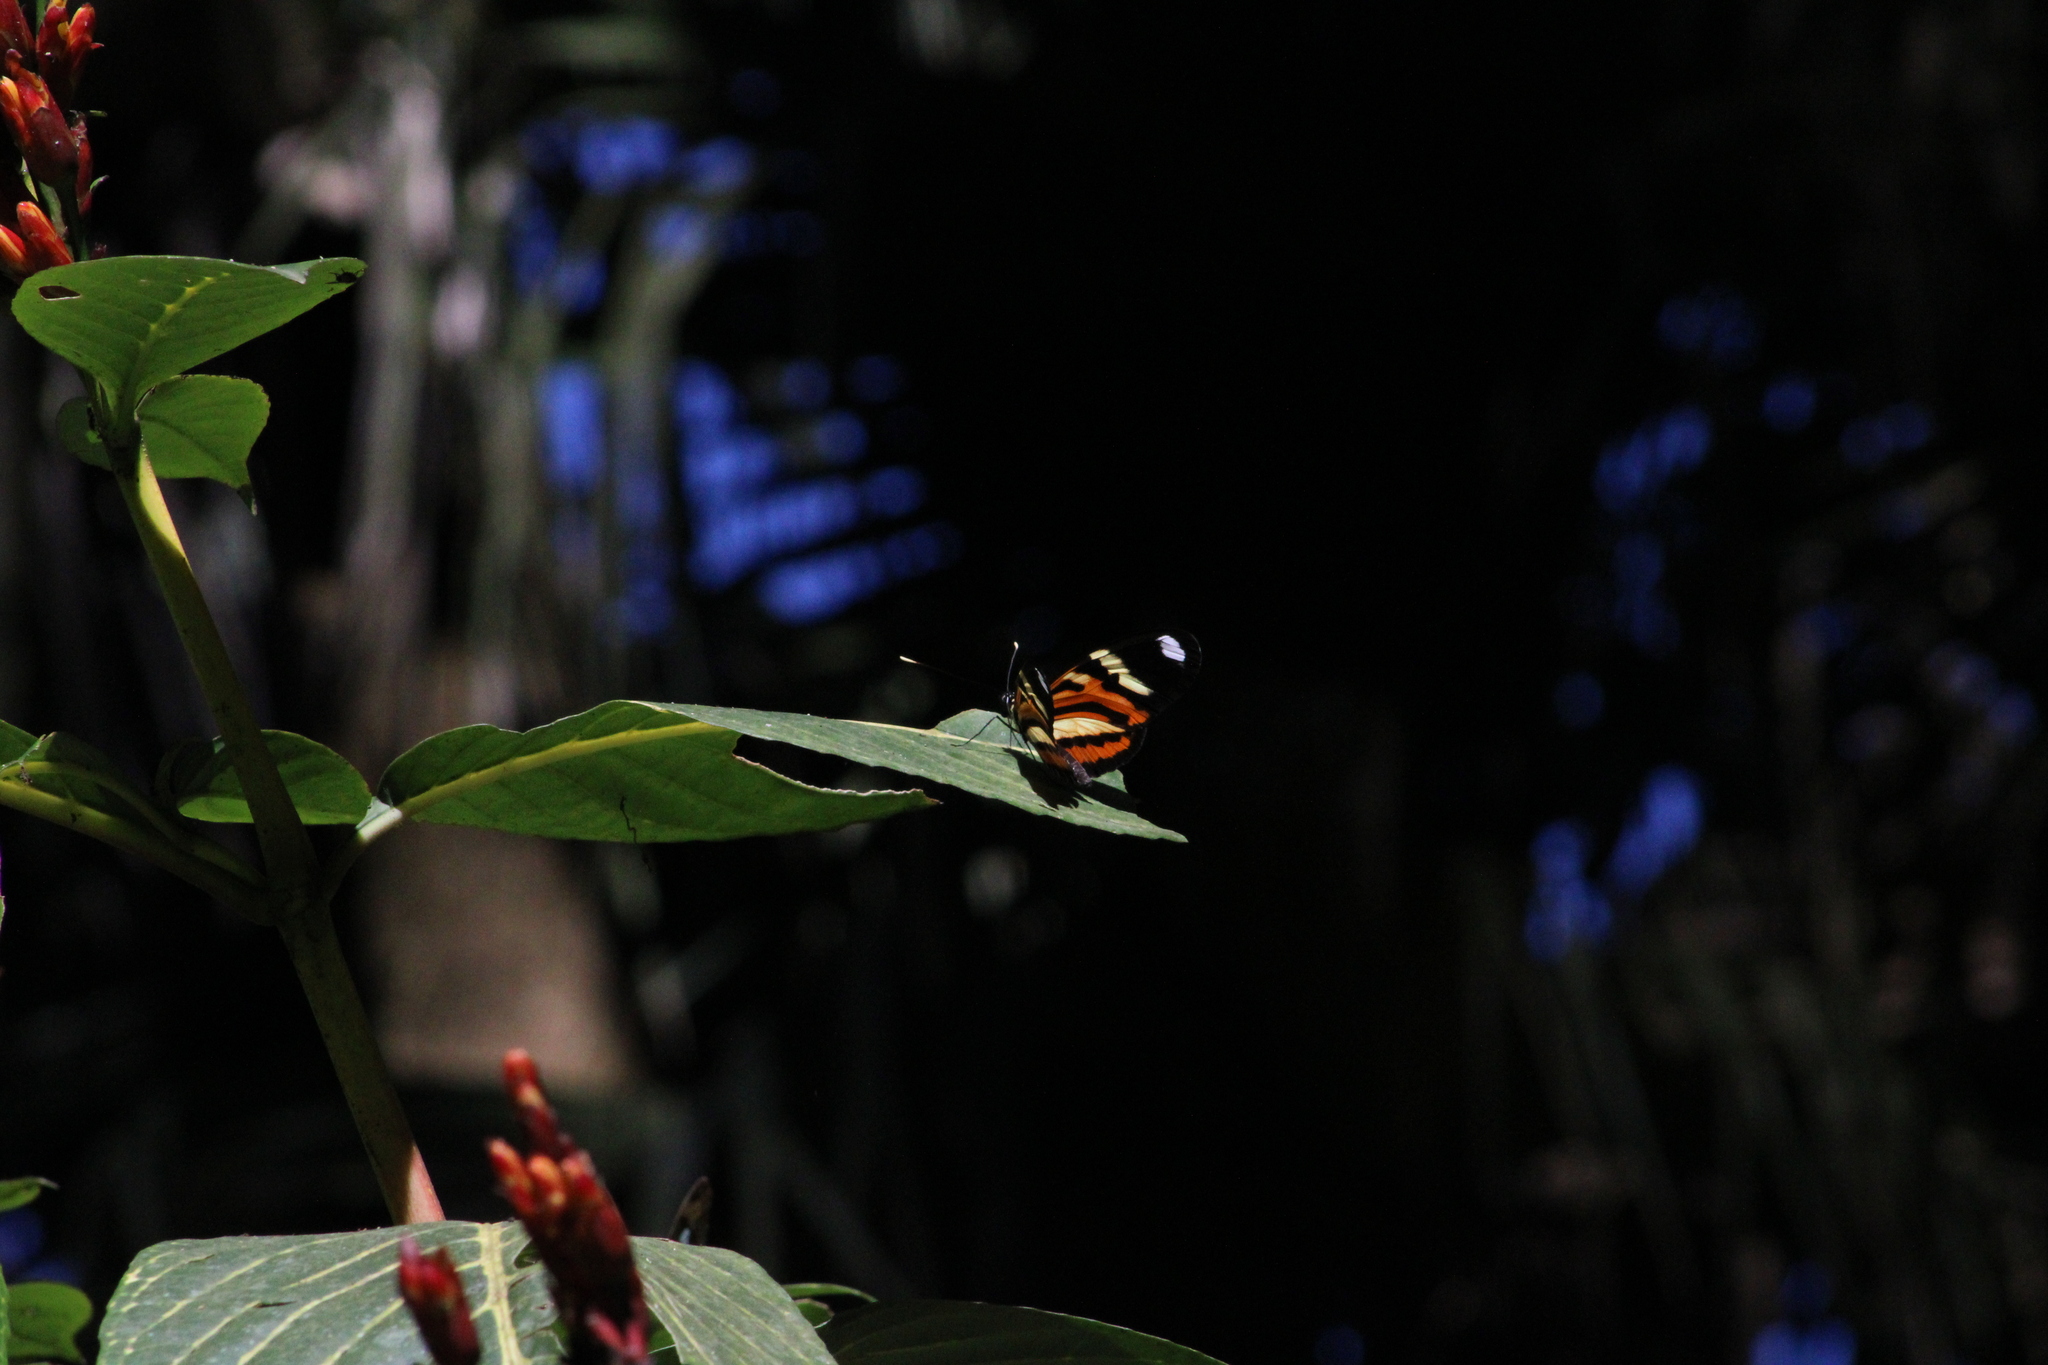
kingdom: Animalia
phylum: Arthropoda
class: Insecta
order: Lepidoptera
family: Nymphalidae
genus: Heliconius
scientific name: Heliconius ethilla
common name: Ethilia longwing
